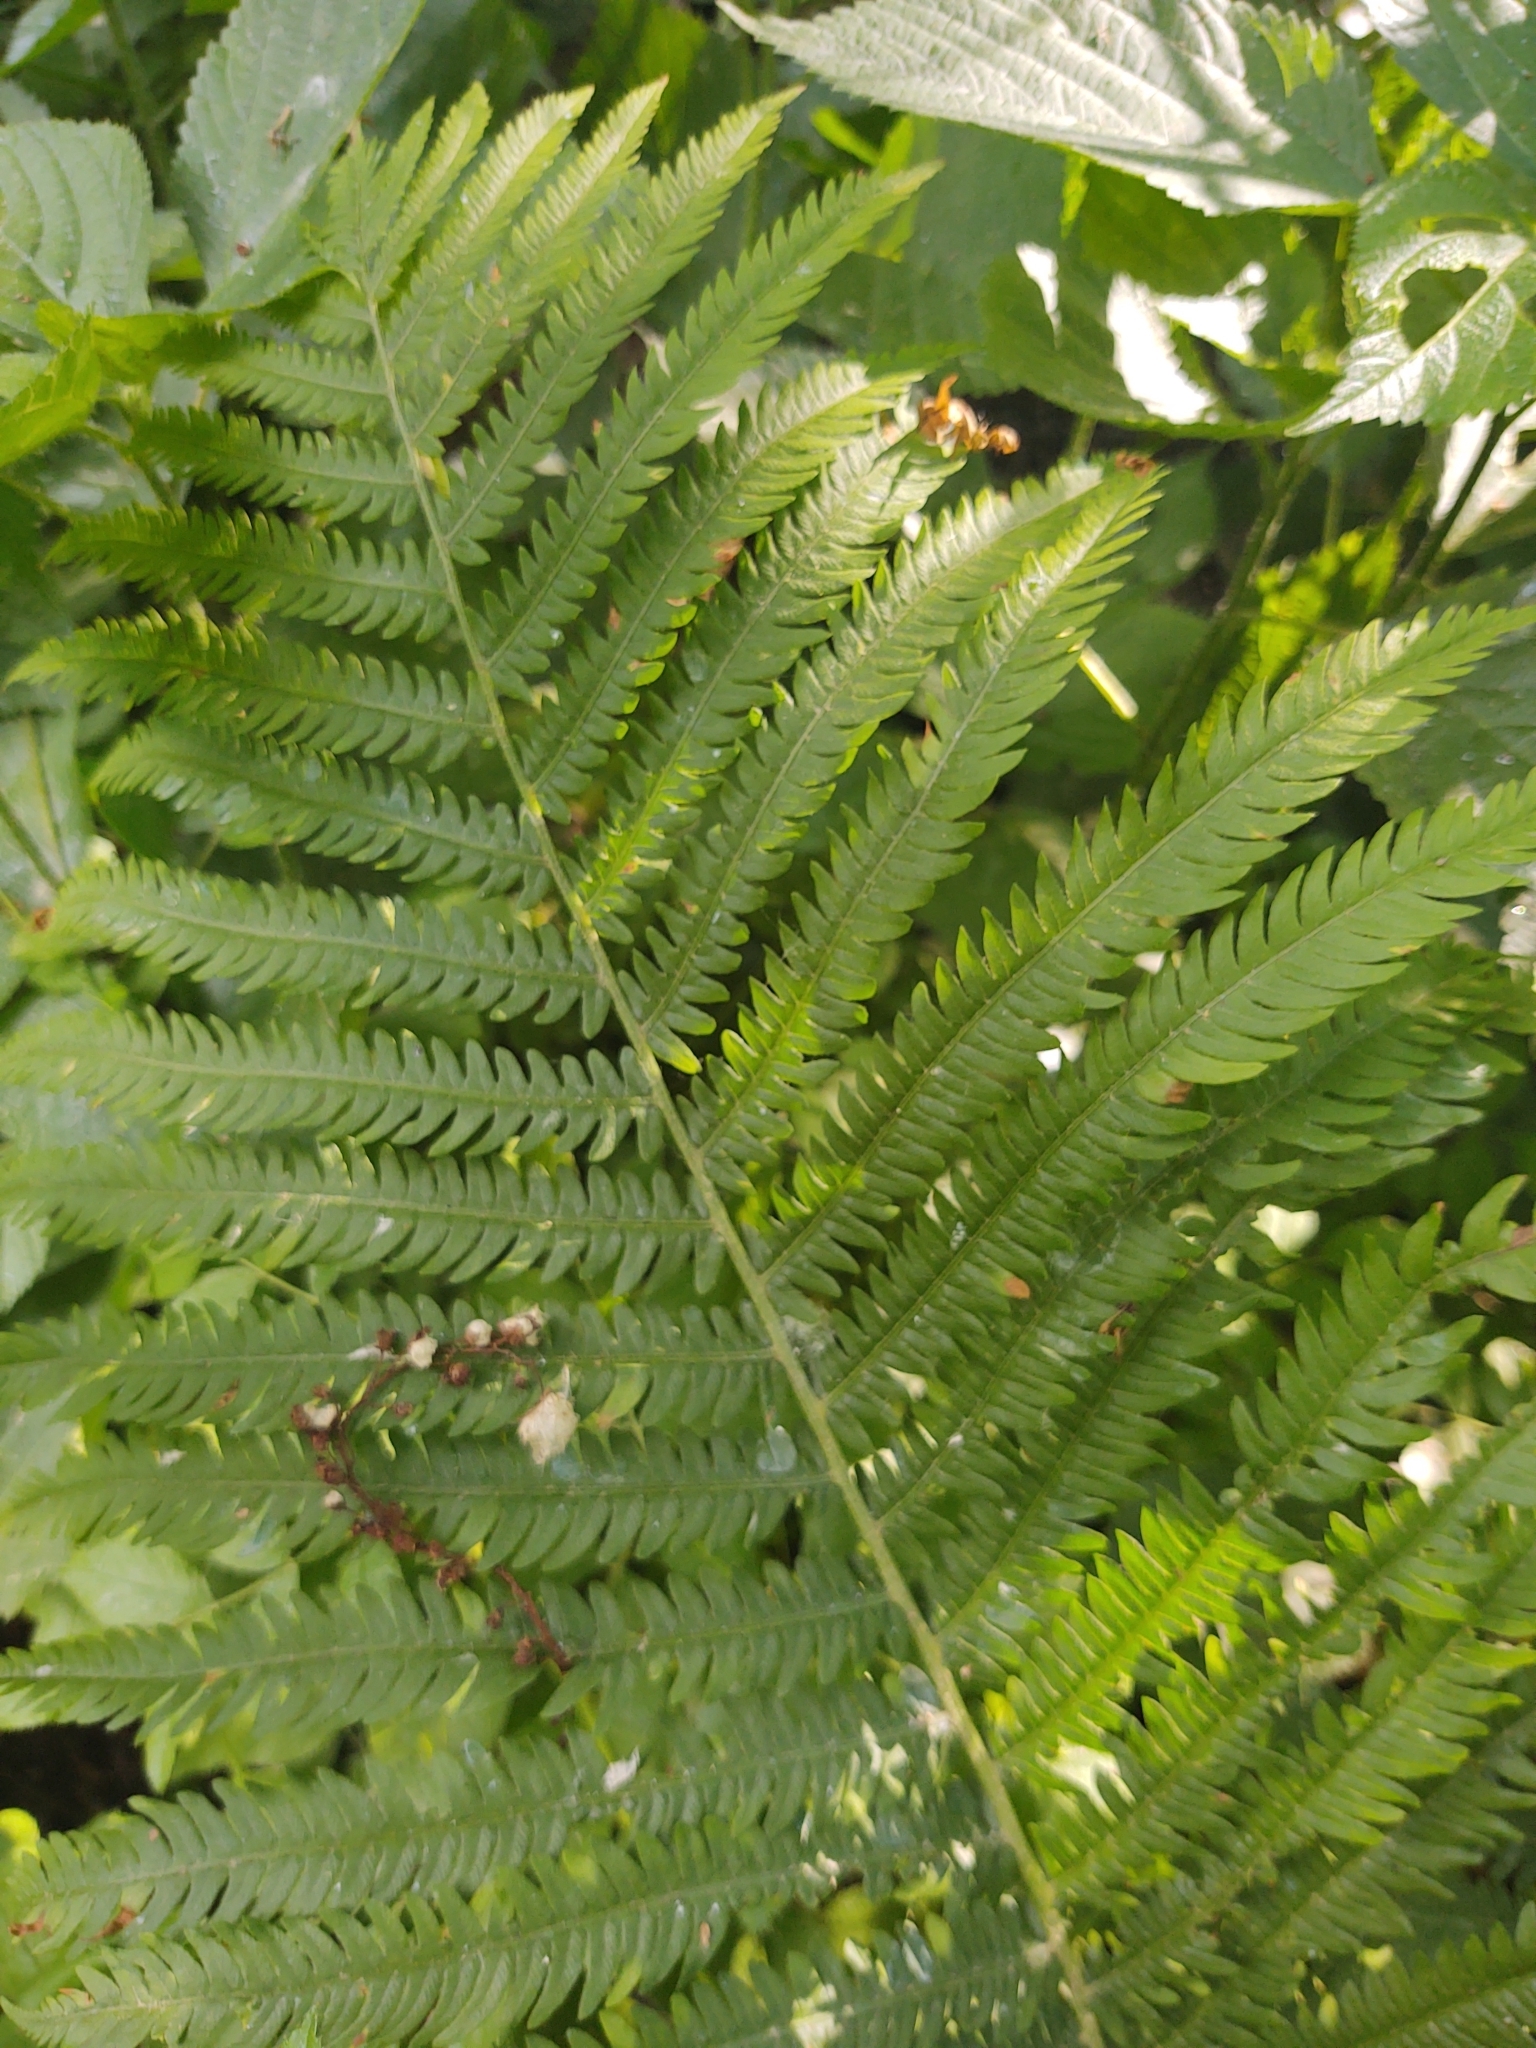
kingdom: Plantae
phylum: Tracheophyta
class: Polypodiopsida
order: Polypodiales
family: Onocleaceae
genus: Matteuccia
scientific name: Matteuccia struthiopteris
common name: Ostrich fern
